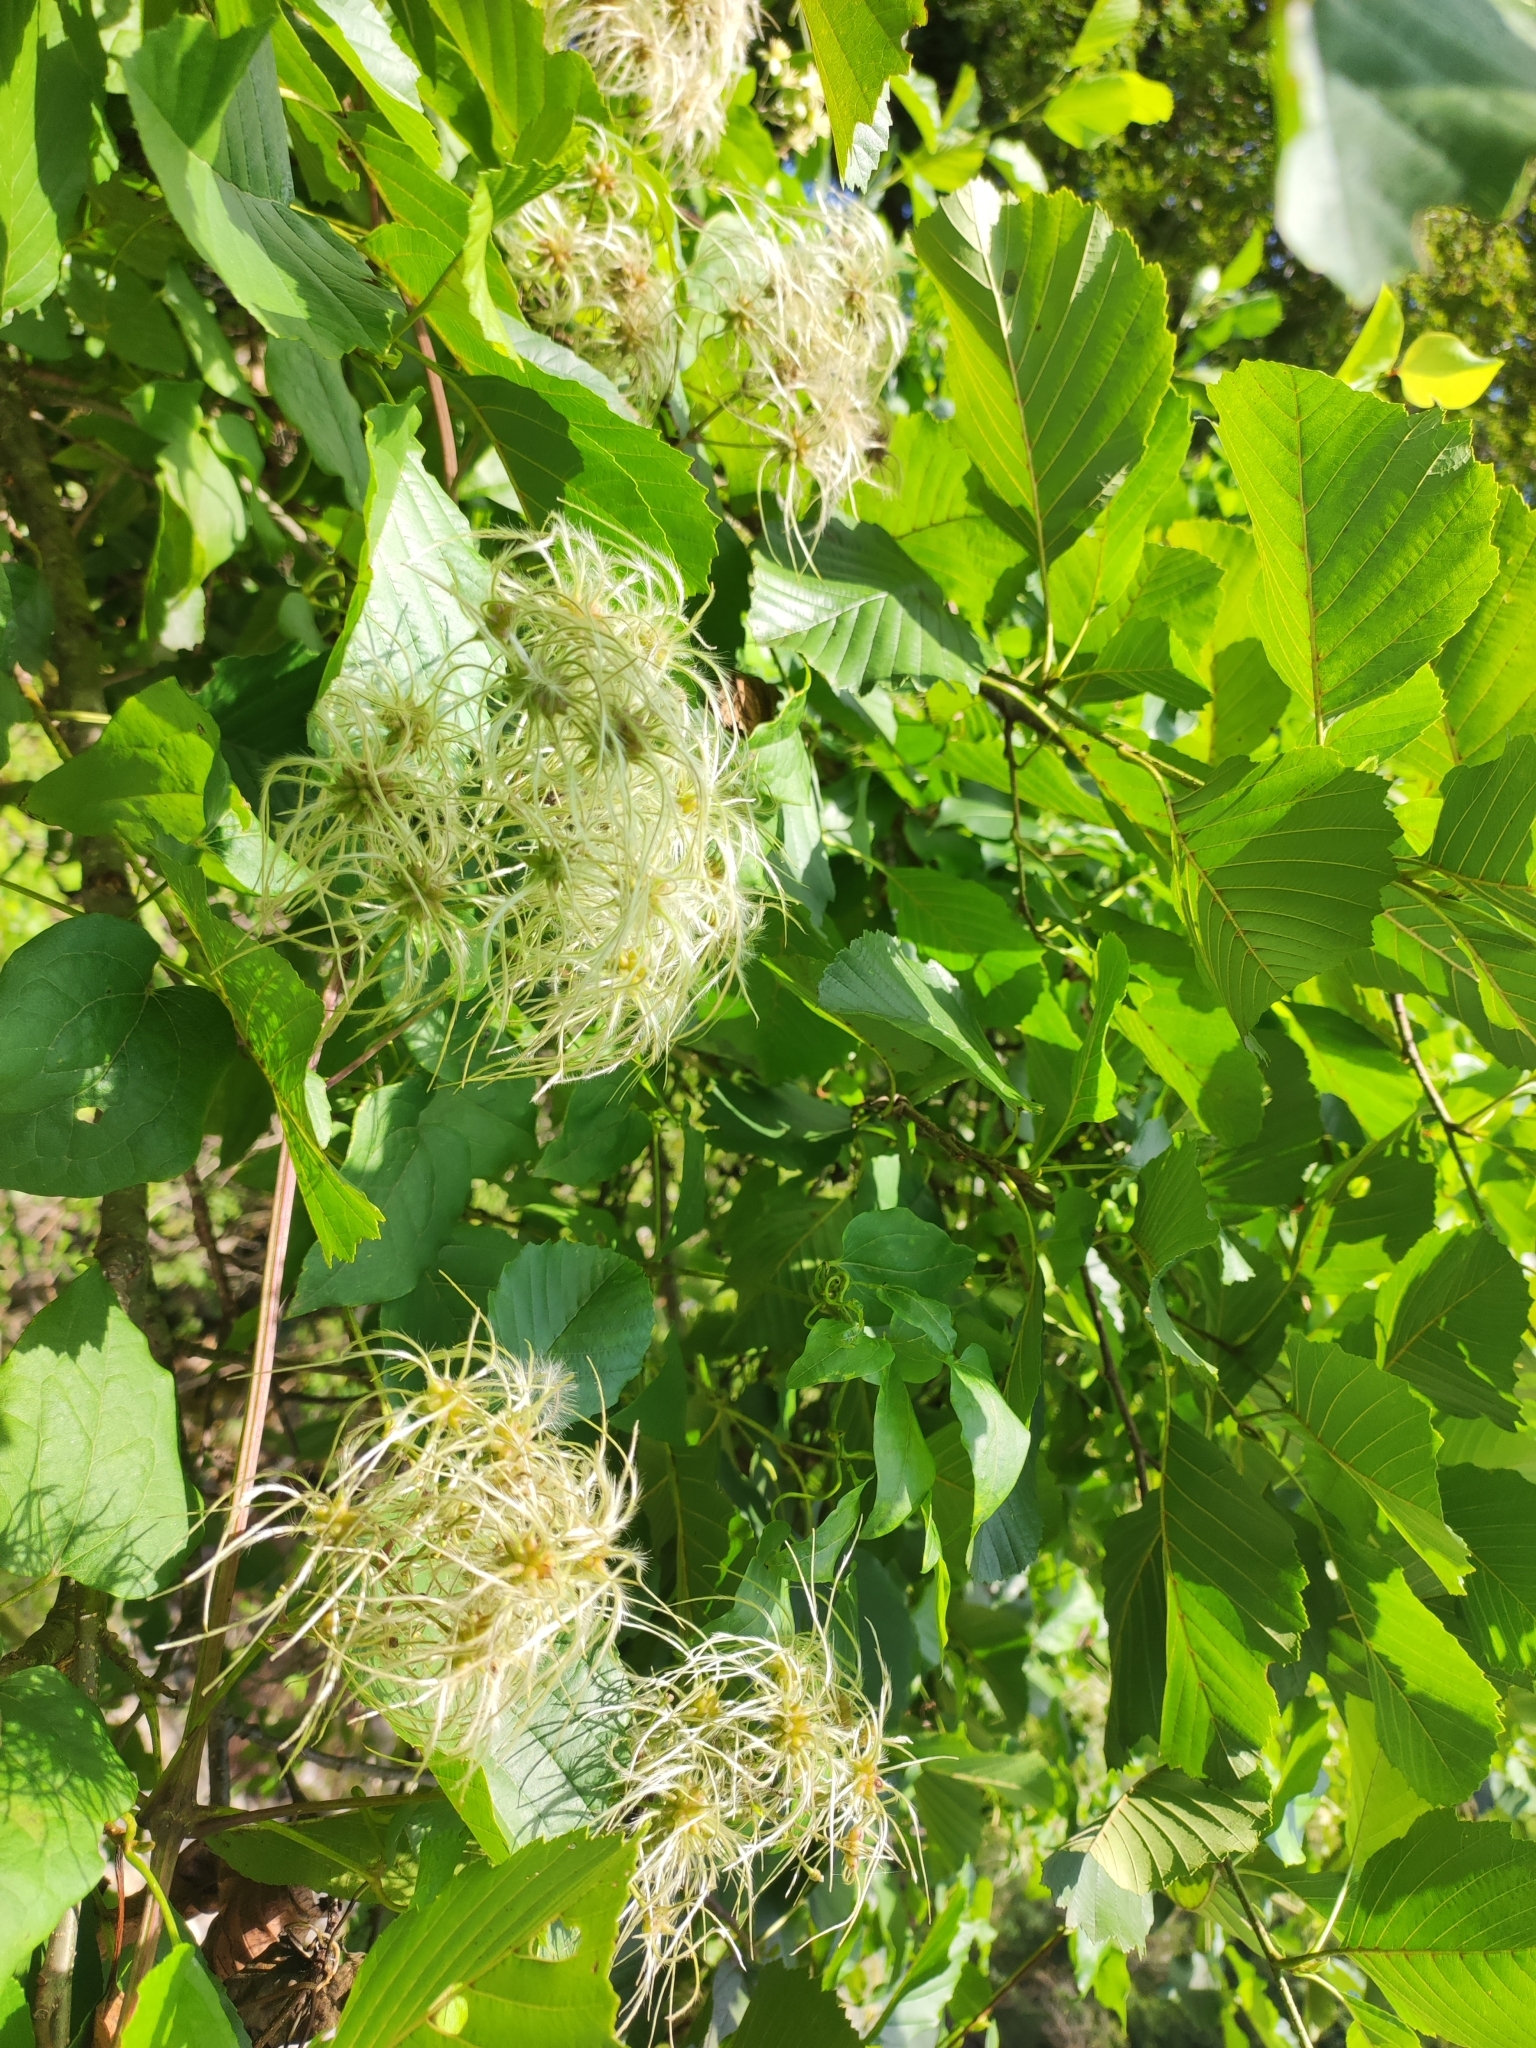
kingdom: Plantae
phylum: Tracheophyta
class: Magnoliopsida
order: Ranunculales
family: Ranunculaceae
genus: Clematis
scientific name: Clematis vitalba
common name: Evergreen clematis
